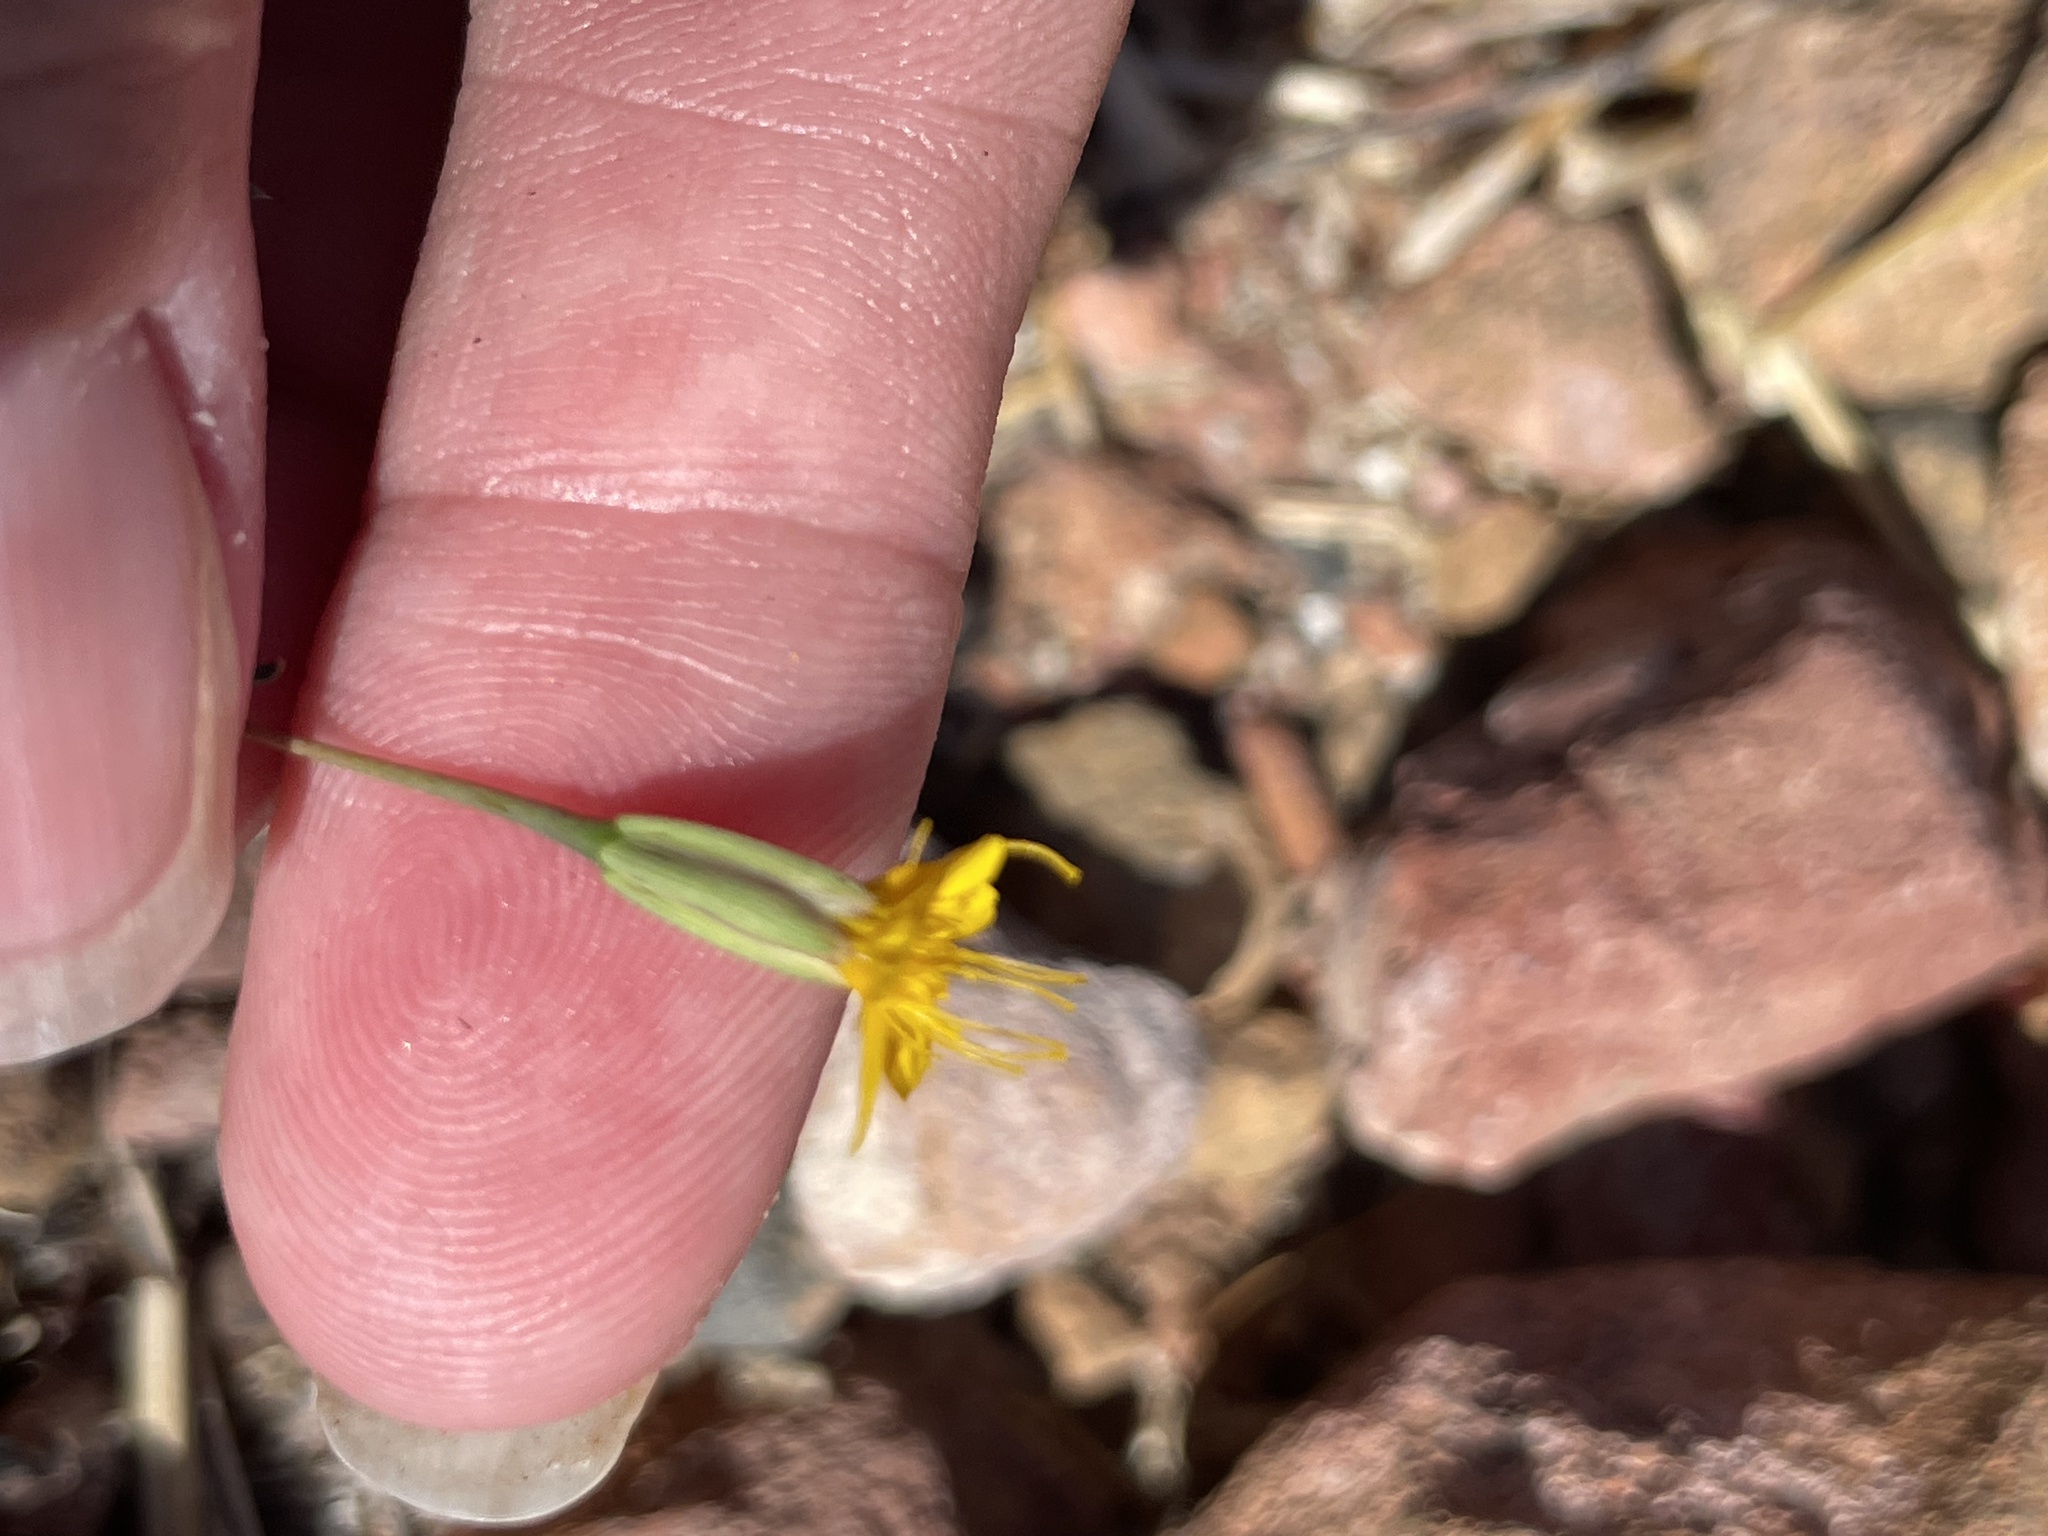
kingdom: Plantae
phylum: Tracheophyta
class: Magnoliopsida
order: Asterales
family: Asteraceae
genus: Pectis
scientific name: Pectis papposa
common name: Many-bristle chinchweed
